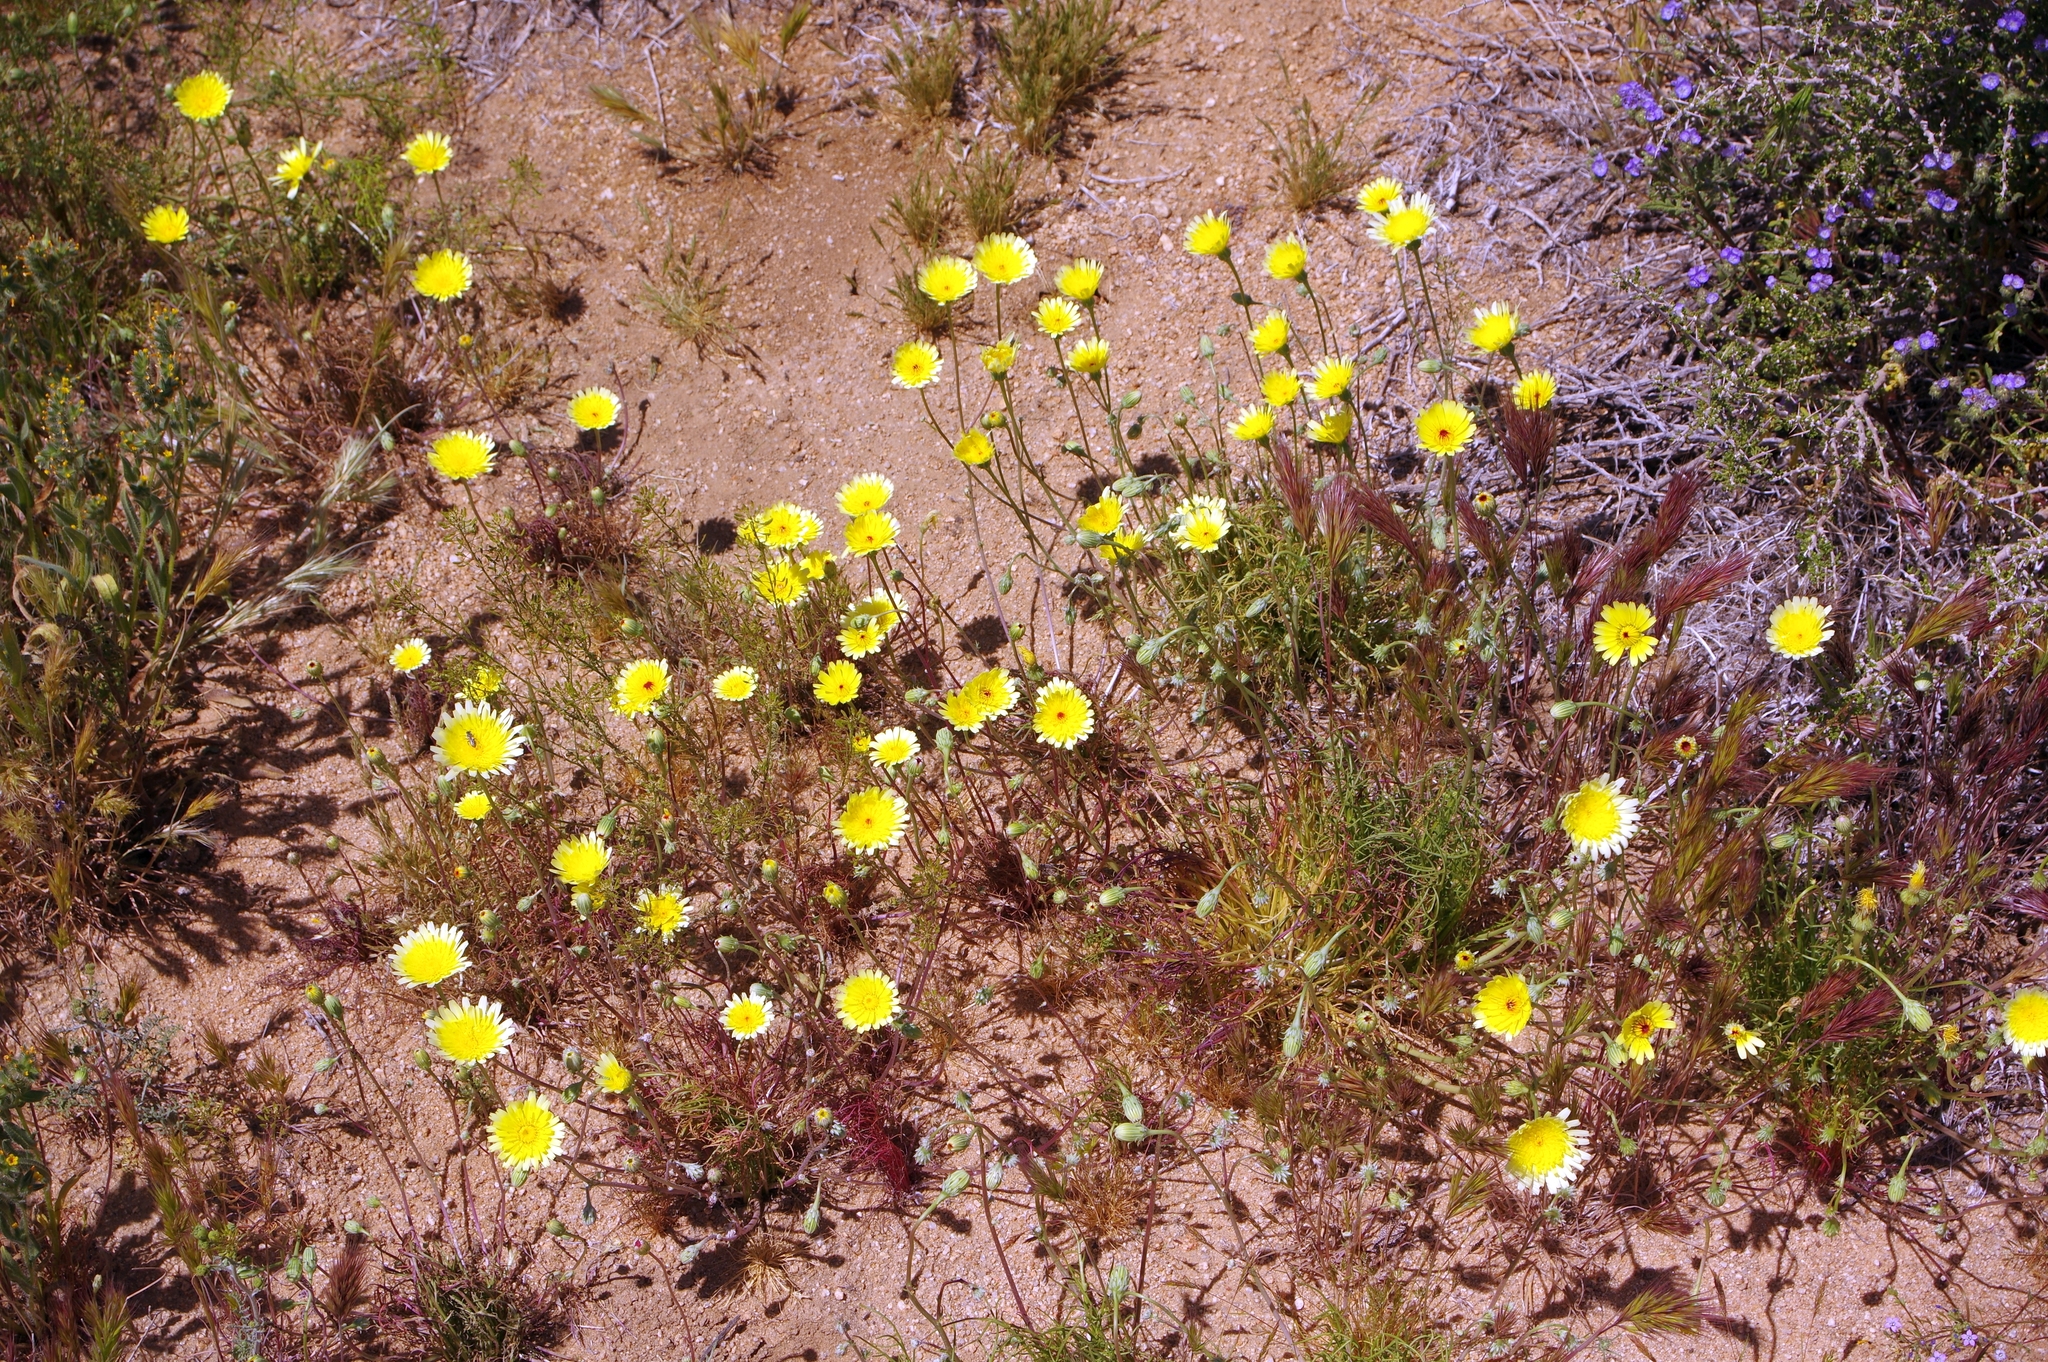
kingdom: Plantae
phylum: Tracheophyta
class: Magnoliopsida
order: Asterales
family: Asteraceae
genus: Malacothrix
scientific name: Malacothrix glabrata
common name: Smooth desert-dandelion
